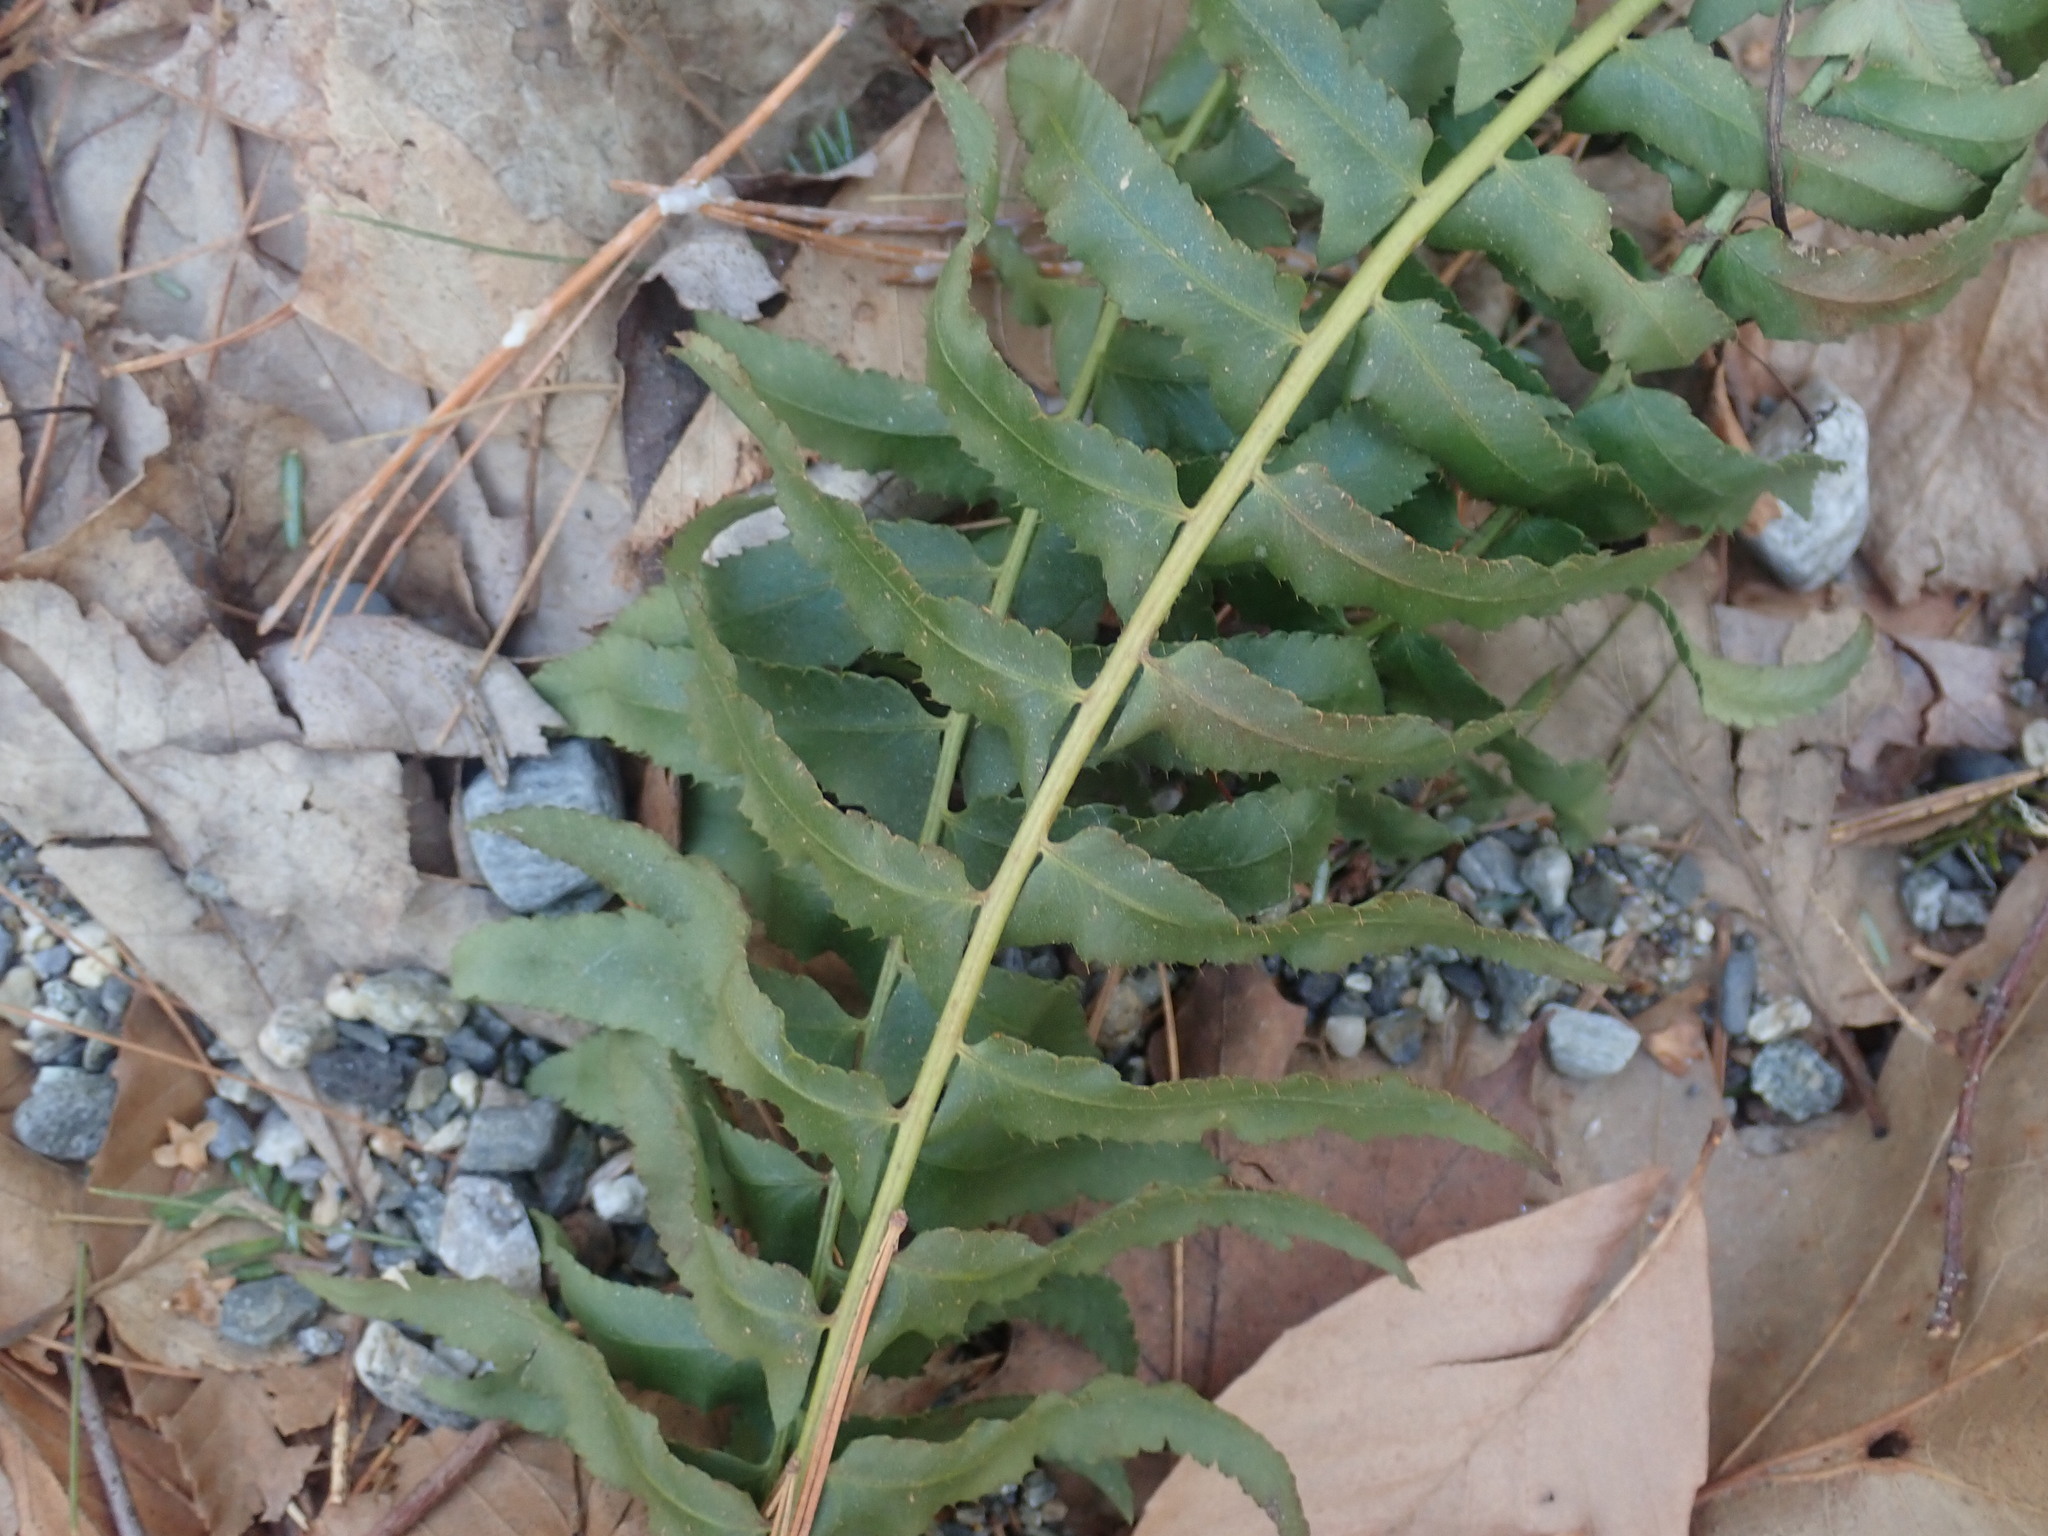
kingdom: Plantae
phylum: Tracheophyta
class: Polypodiopsida
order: Polypodiales
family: Dryopteridaceae
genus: Polystichum
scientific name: Polystichum acrostichoides
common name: Christmas fern
